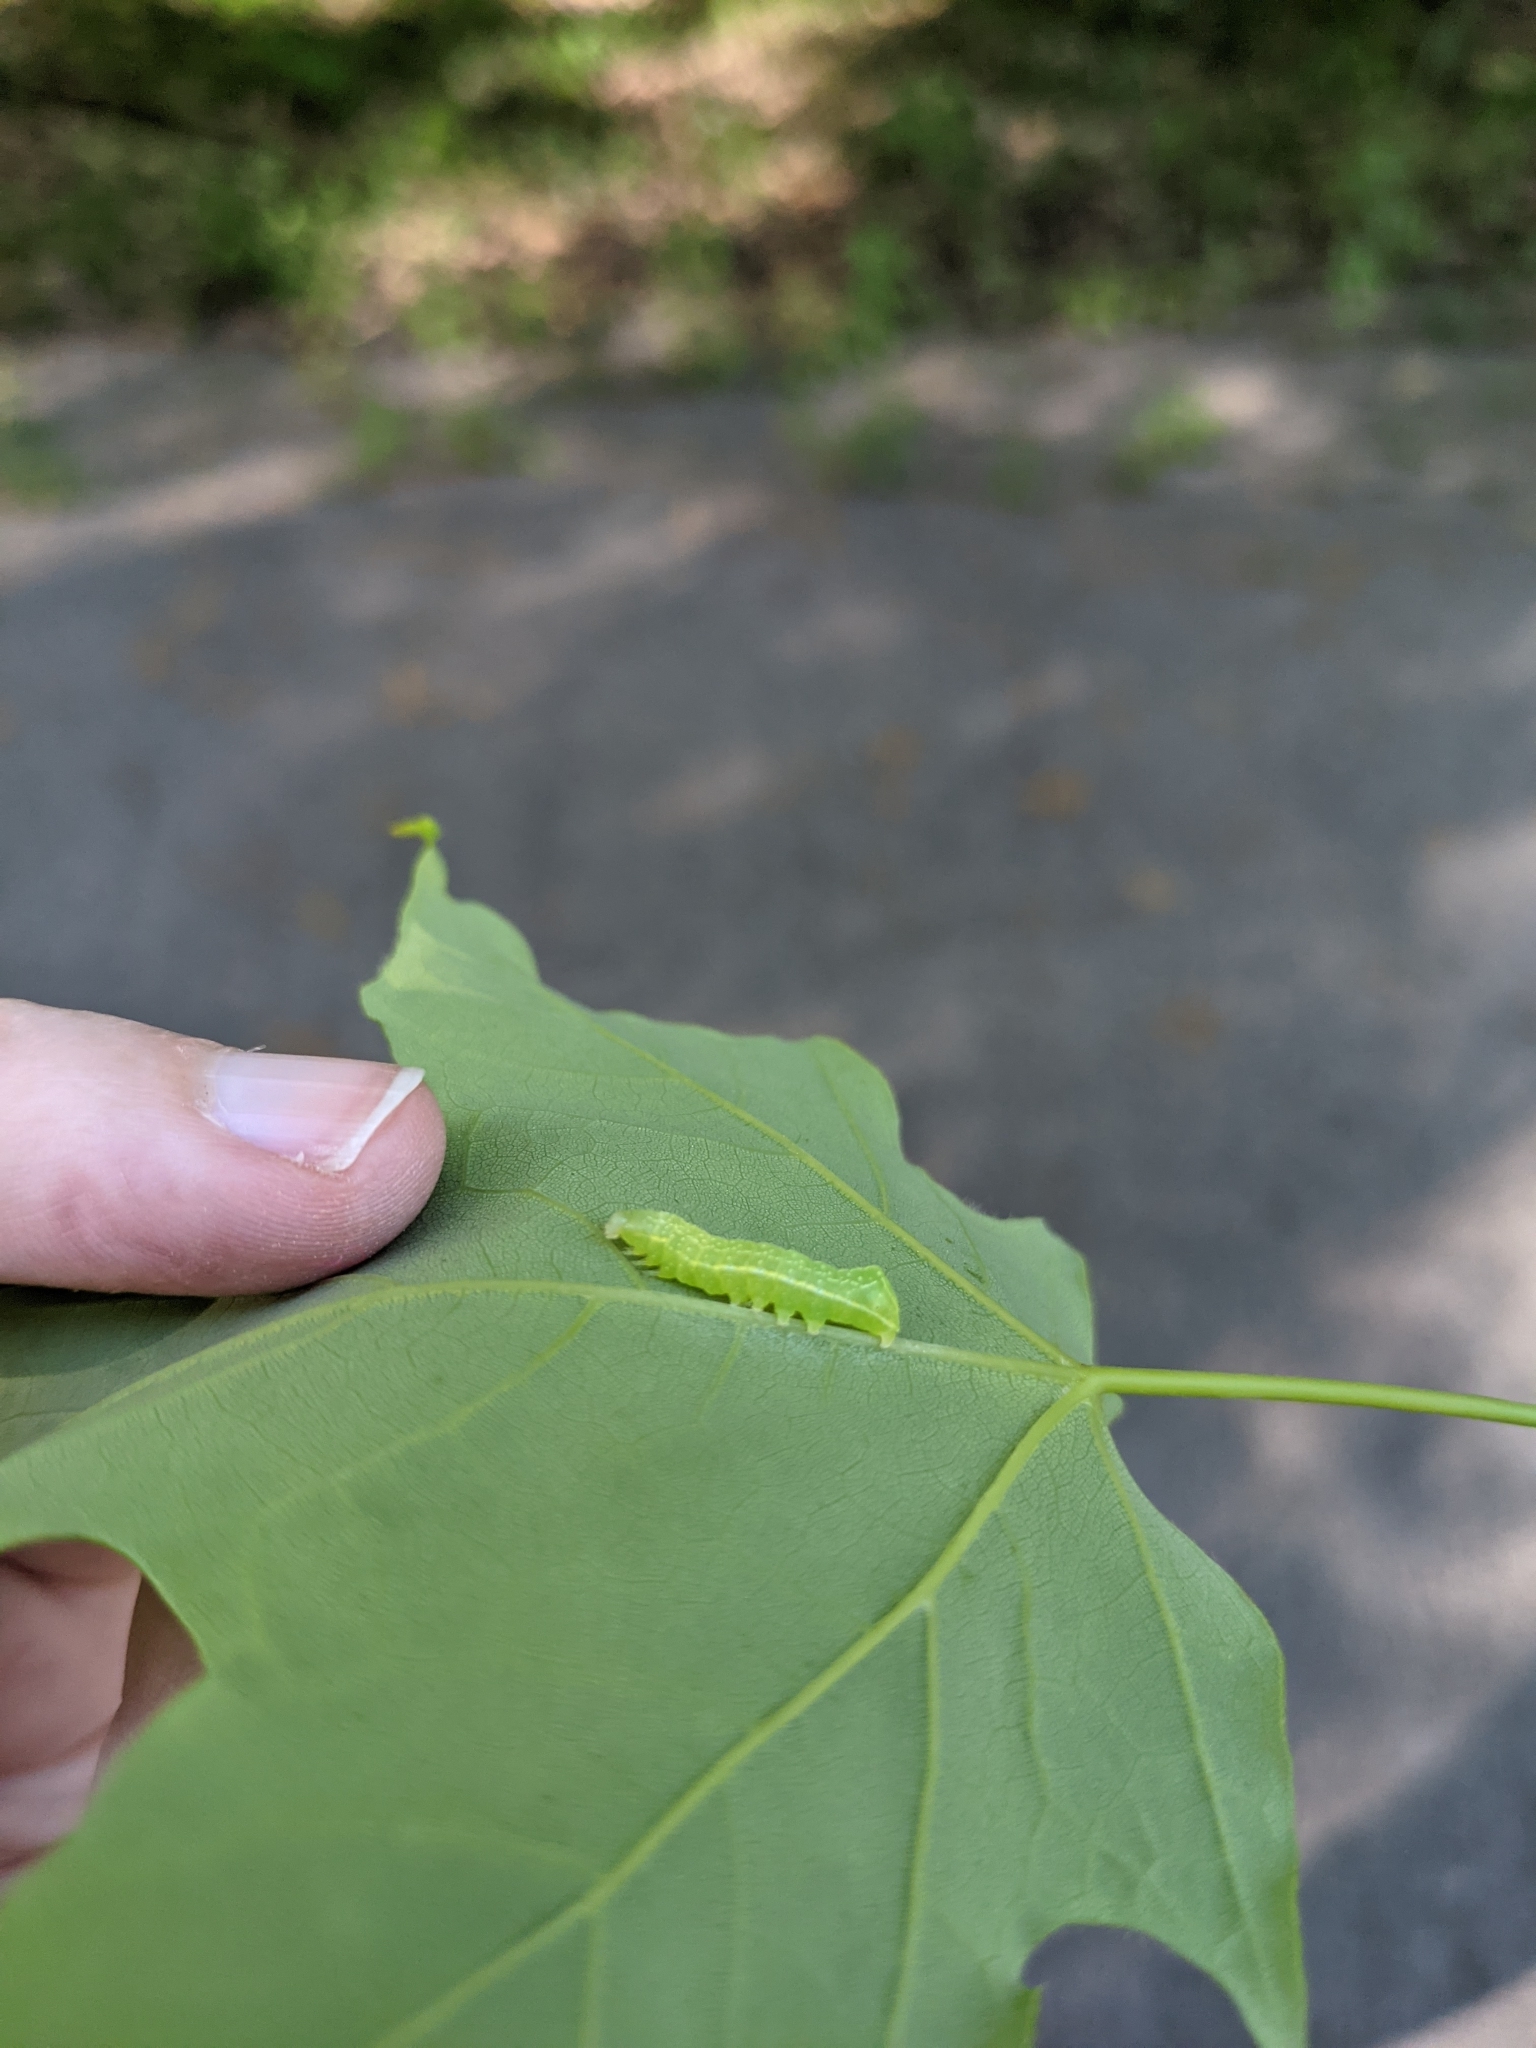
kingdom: Animalia
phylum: Arthropoda
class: Insecta
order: Lepidoptera
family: Noctuidae
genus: Amphipyra
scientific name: Amphipyra pyramidoides
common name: American copper underwing
